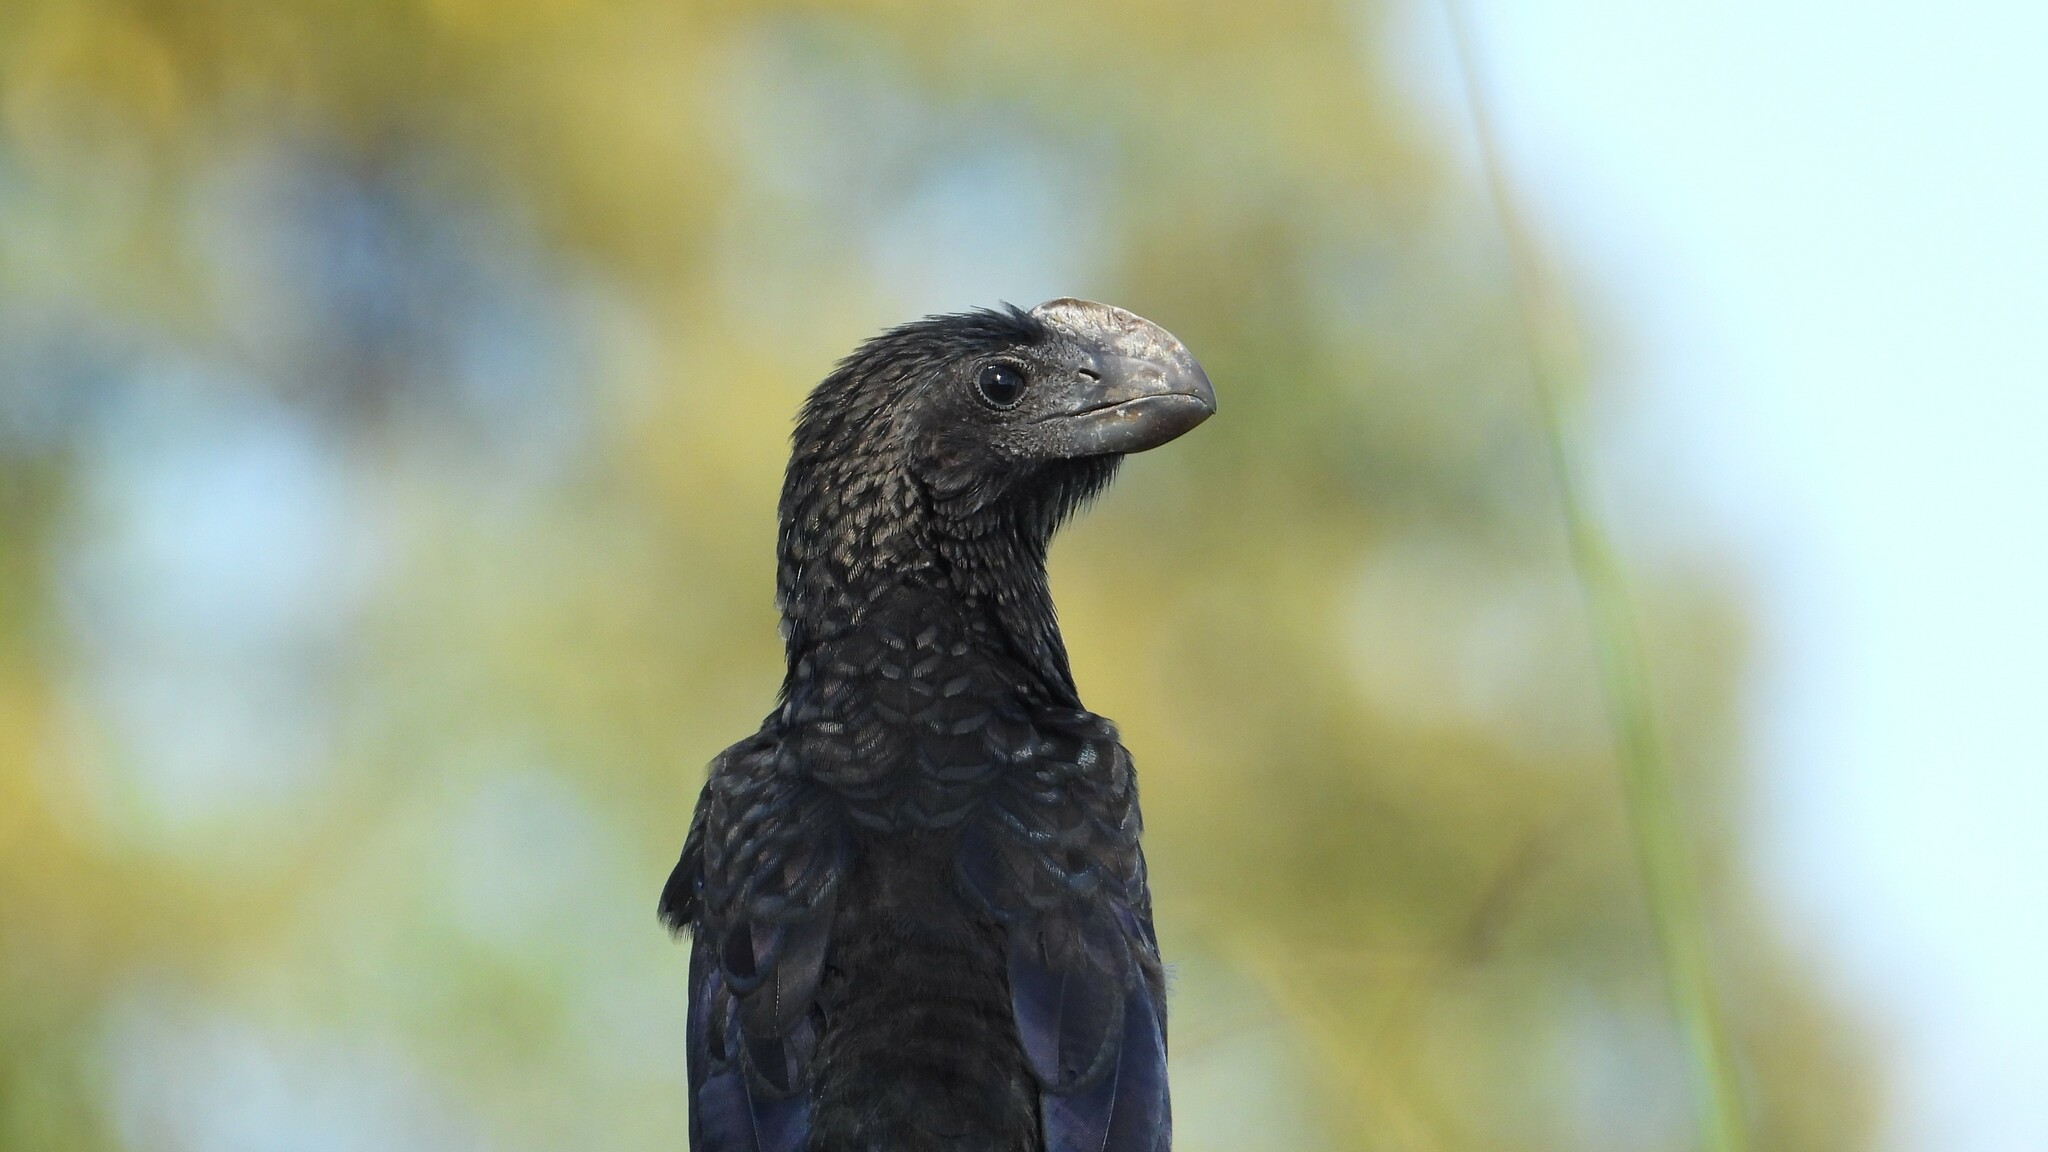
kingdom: Animalia
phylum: Chordata
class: Aves
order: Cuculiformes
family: Cuculidae
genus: Crotophaga
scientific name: Crotophaga ani
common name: Smooth-billed ani
